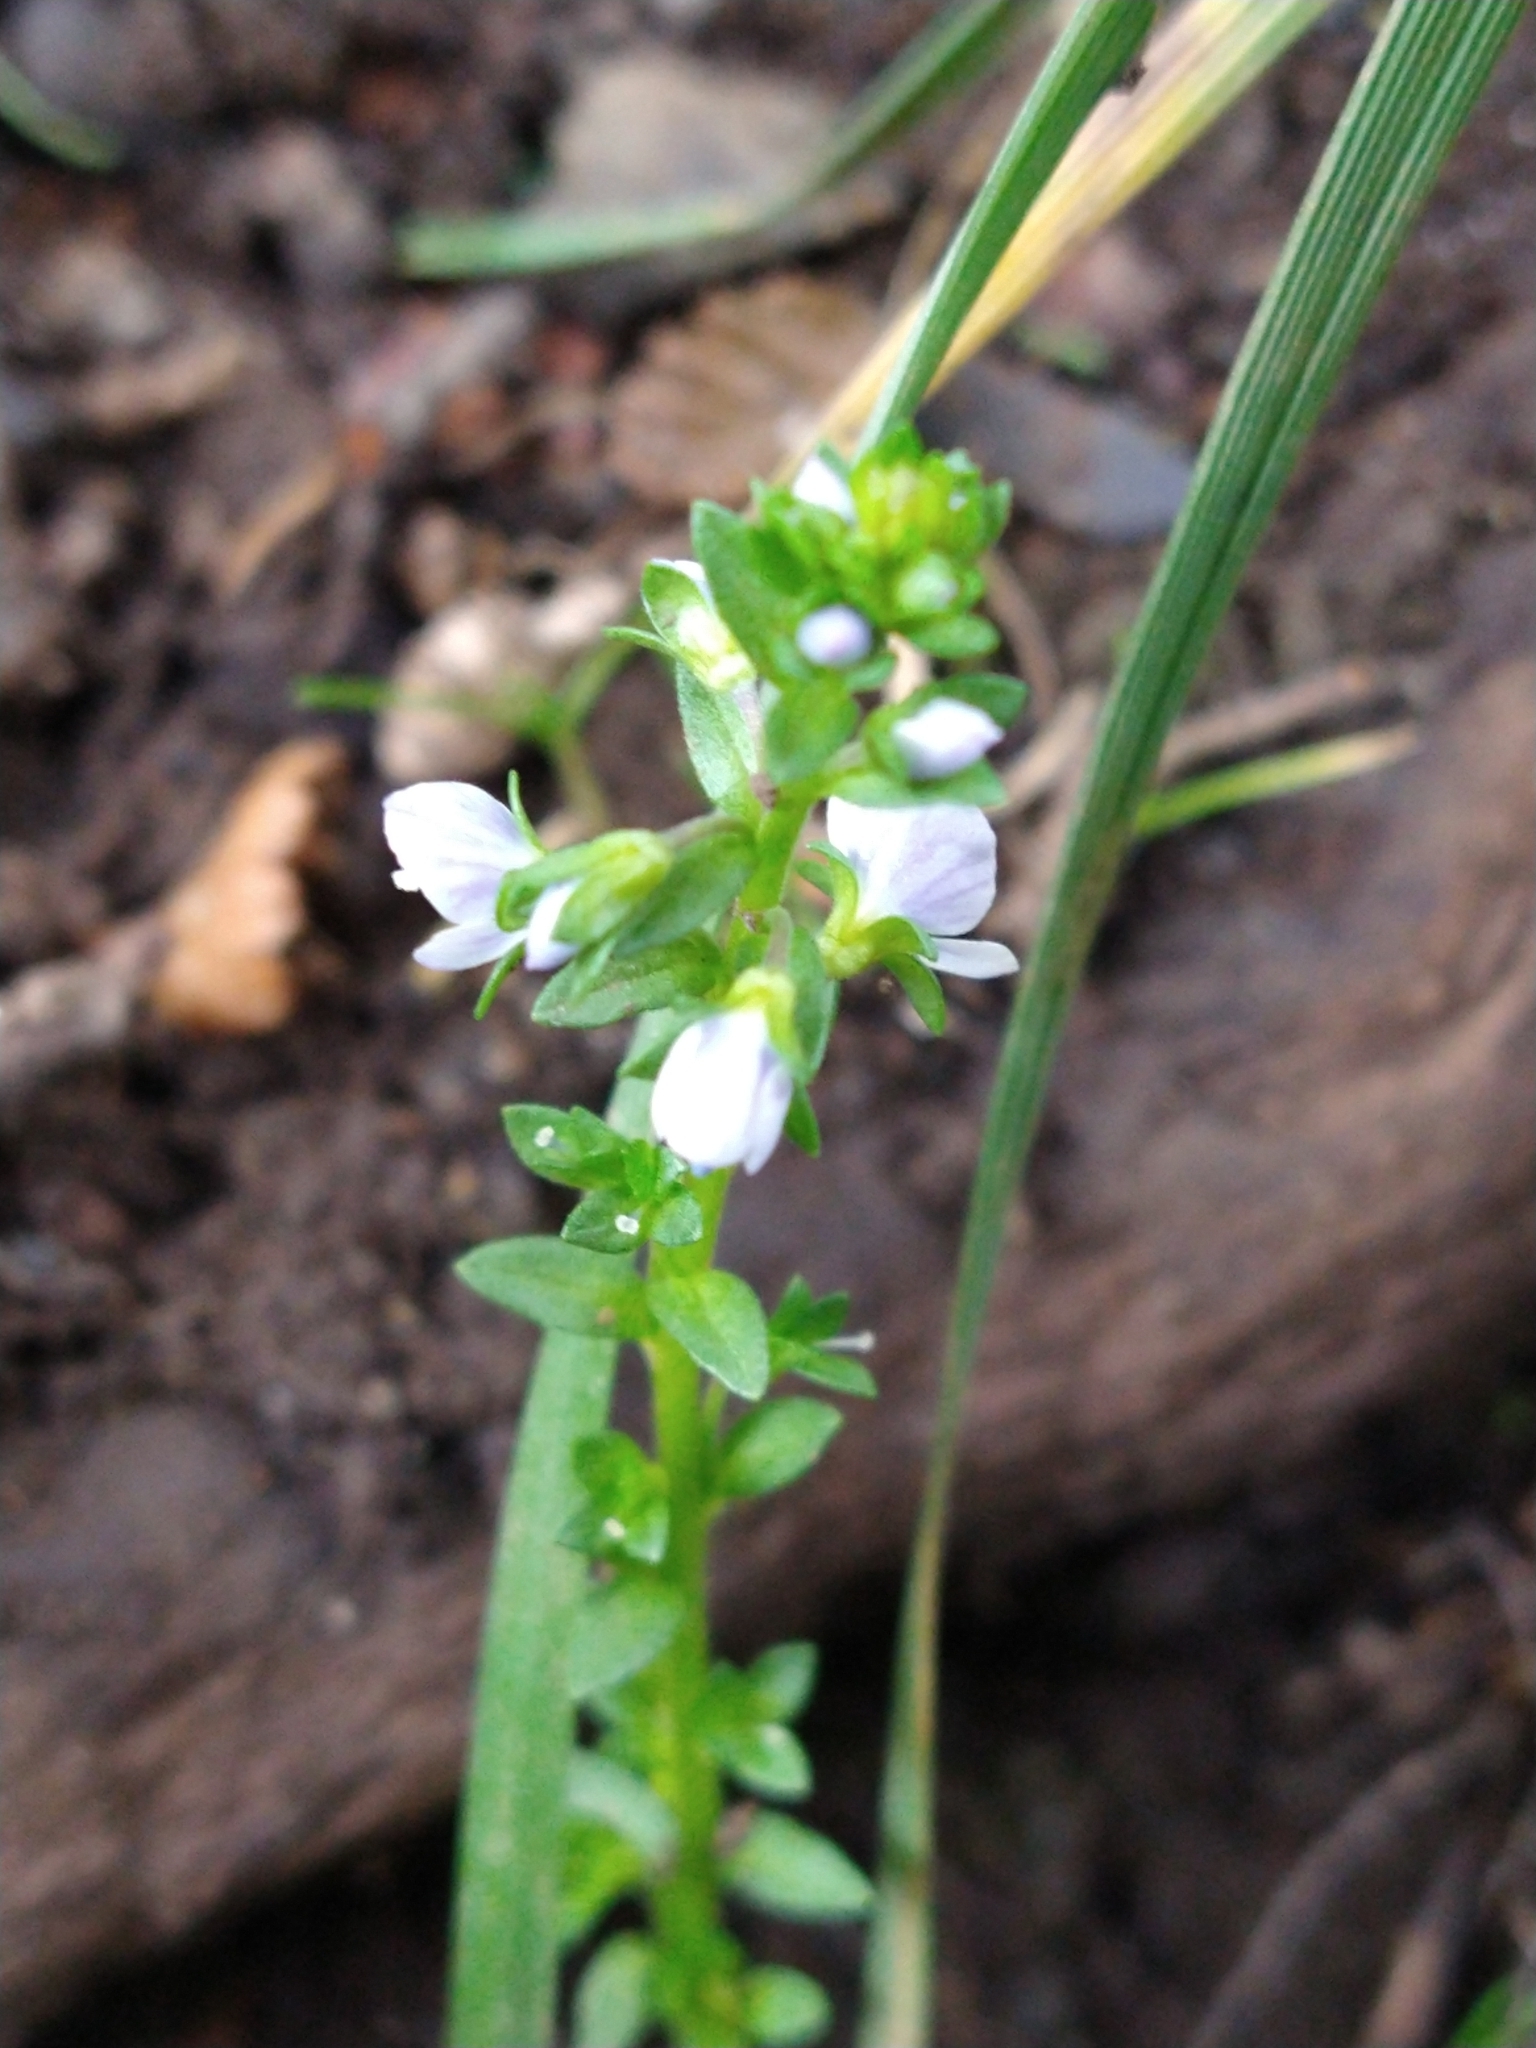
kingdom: Plantae
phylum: Tracheophyta
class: Magnoliopsida
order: Lamiales
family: Plantaginaceae
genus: Veronica
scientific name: Veronica serpyllifolia
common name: Thyme-leaved speedwell
